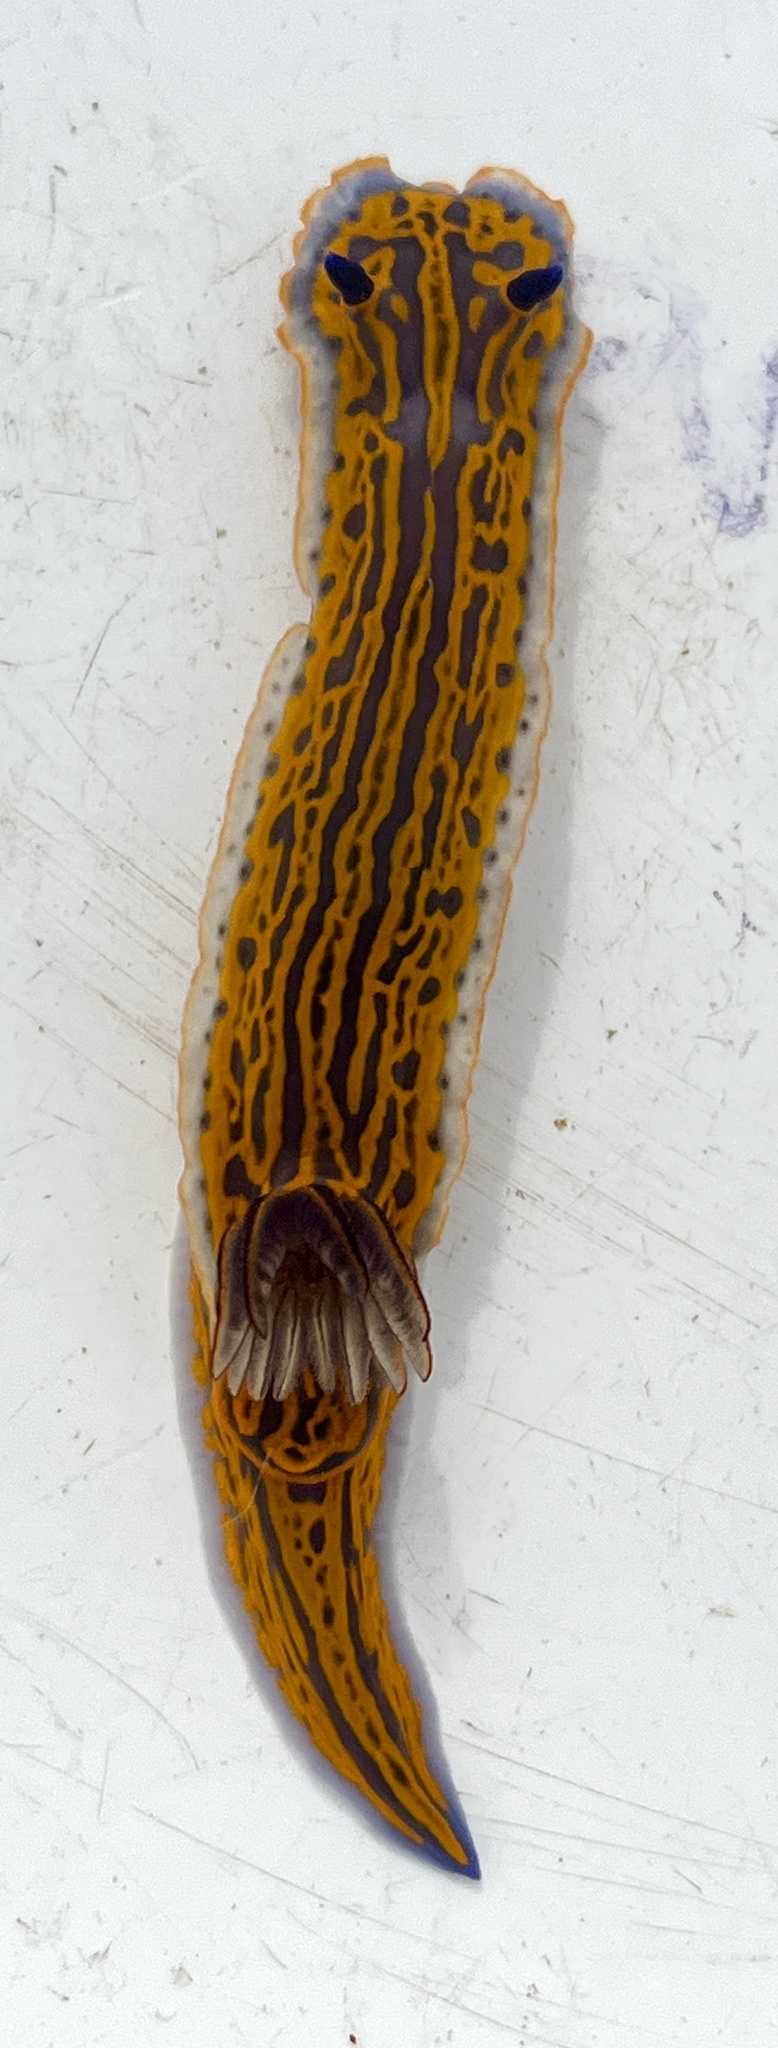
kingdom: Animalia
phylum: Mollusca
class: Gastropoda
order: Nudibranchia
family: Chromodorididae
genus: Felimare
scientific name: Felimare zebra
